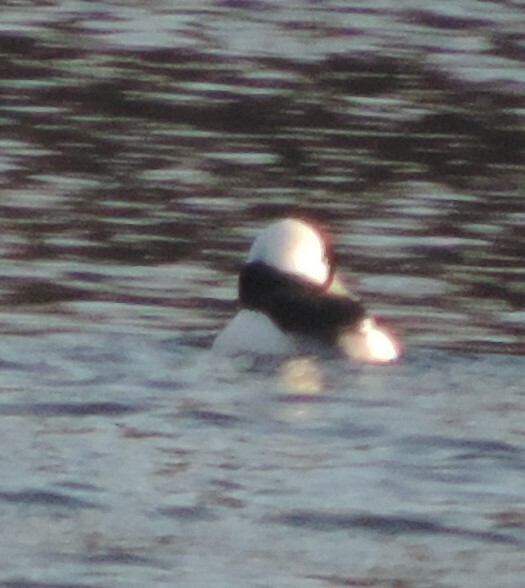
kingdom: Animalia
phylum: Chordata
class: Aves
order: Anseriformes
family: Anatidae
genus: Bucephala
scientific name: Bucephala albeola
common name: Bufflehead
